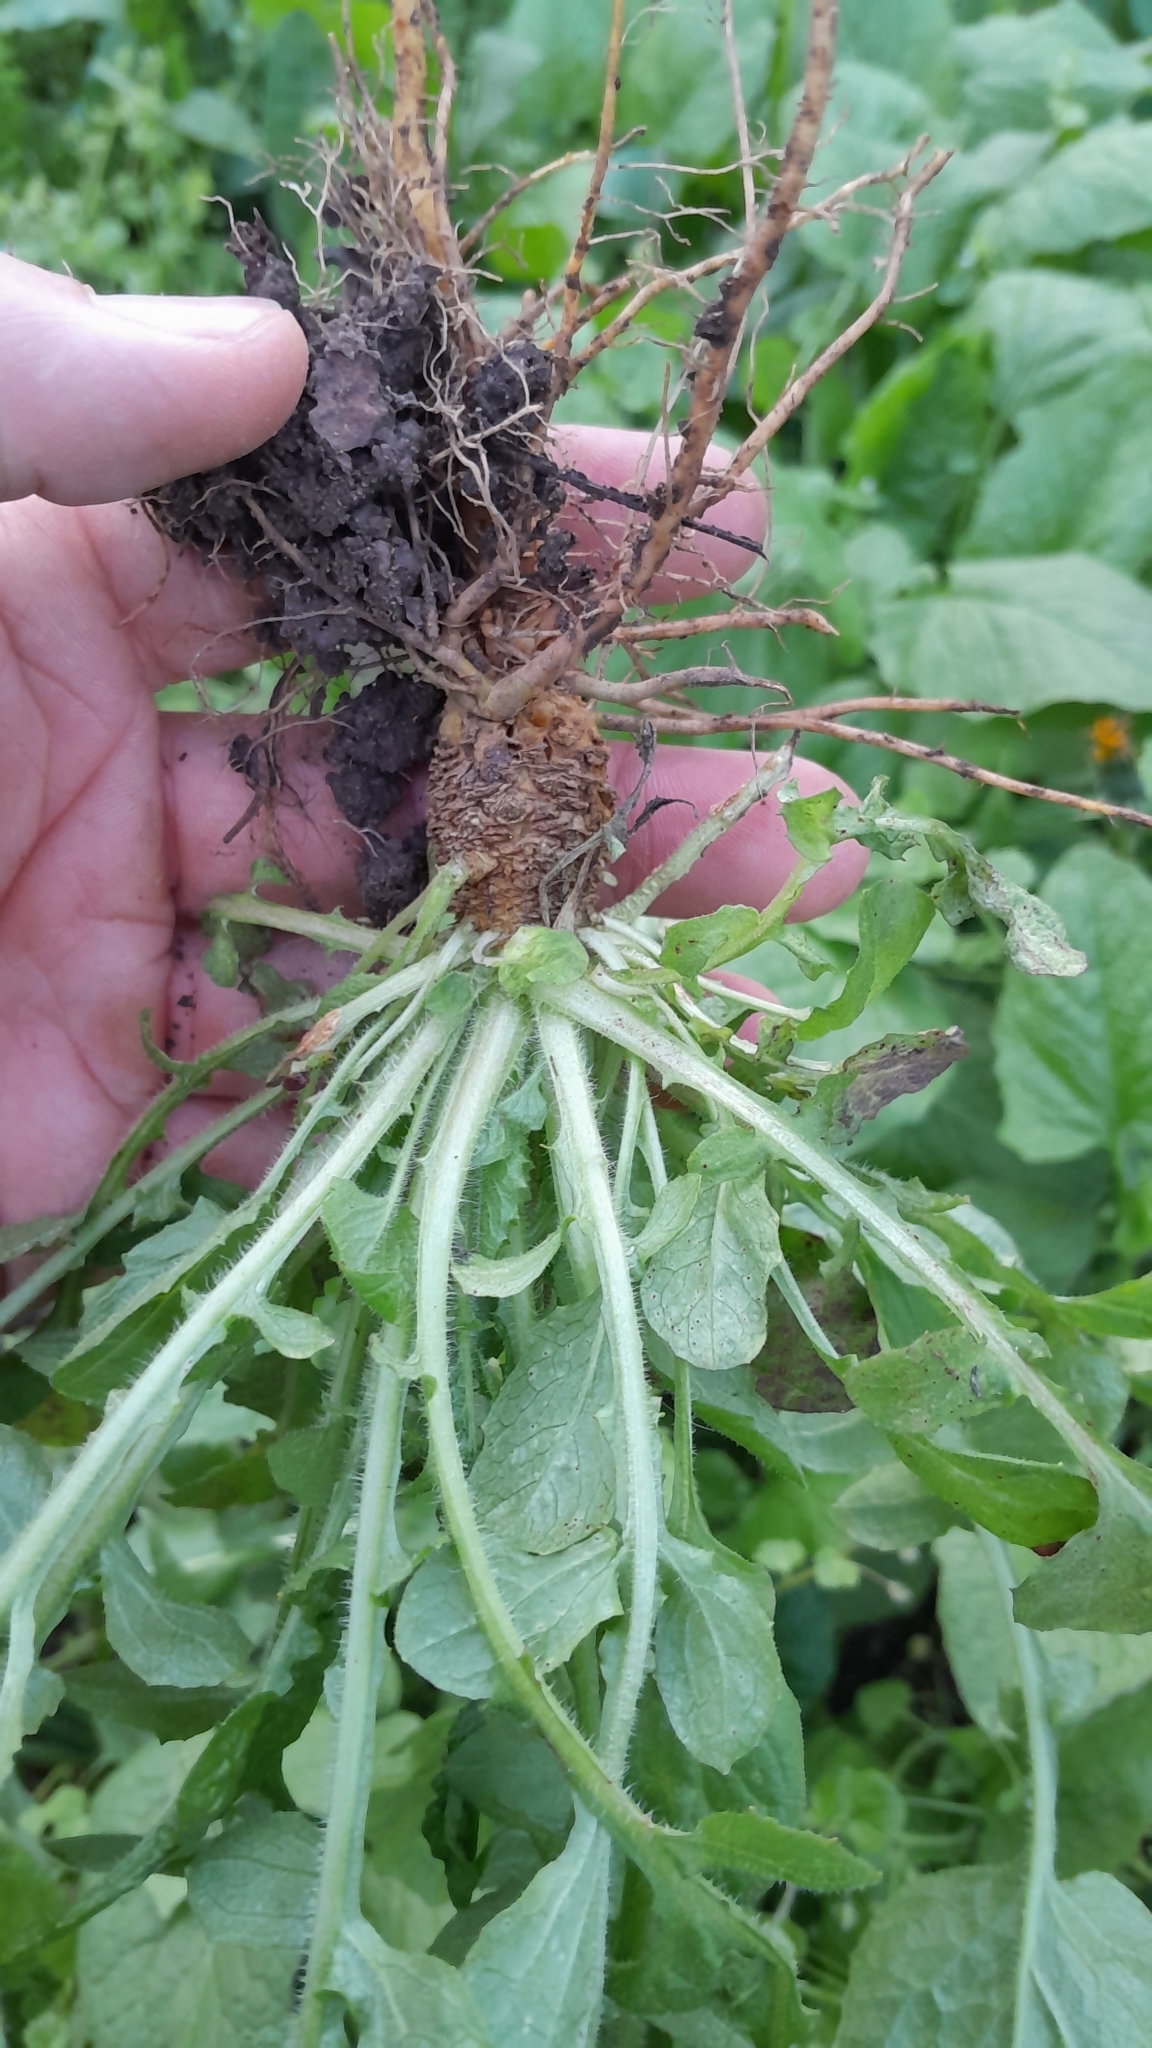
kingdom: Plantae
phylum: Tracheophyta
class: Magnoliopsida
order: Asterales
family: Asteraceae
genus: Lapsana
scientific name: Lapsana communis
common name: Nipplewort
